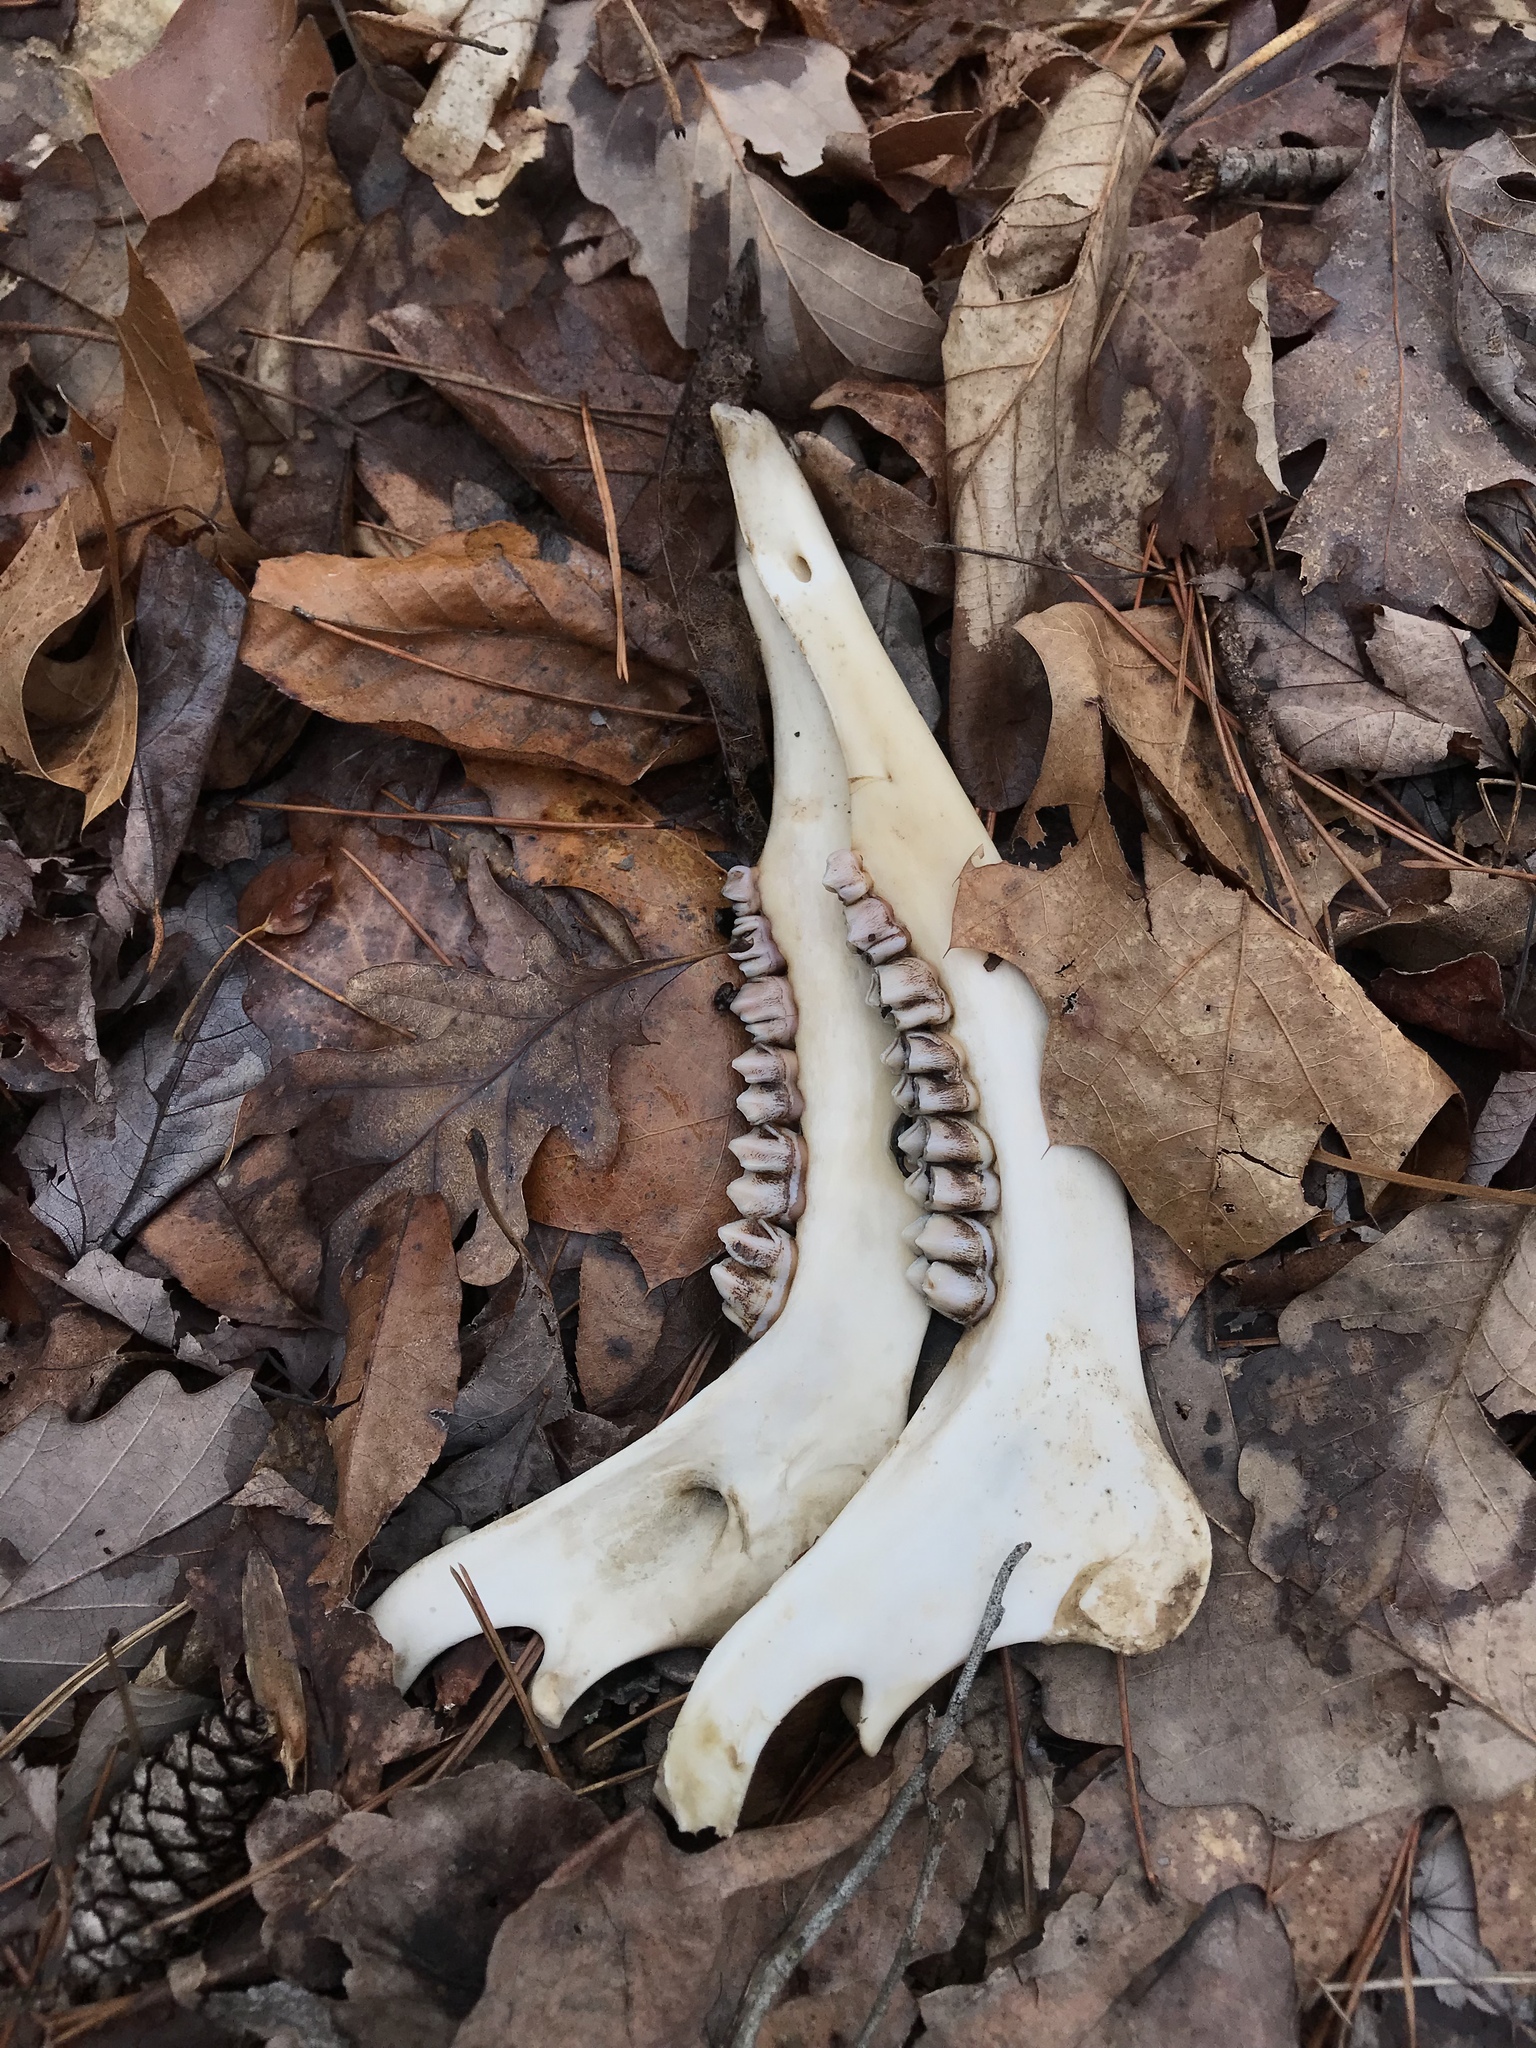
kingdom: Animalia
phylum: Chordata
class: Mammalia
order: Artiodactyla
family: Cervidae
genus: Odocoileus
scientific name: Odocoileus virginianus
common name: White-tailed deer
